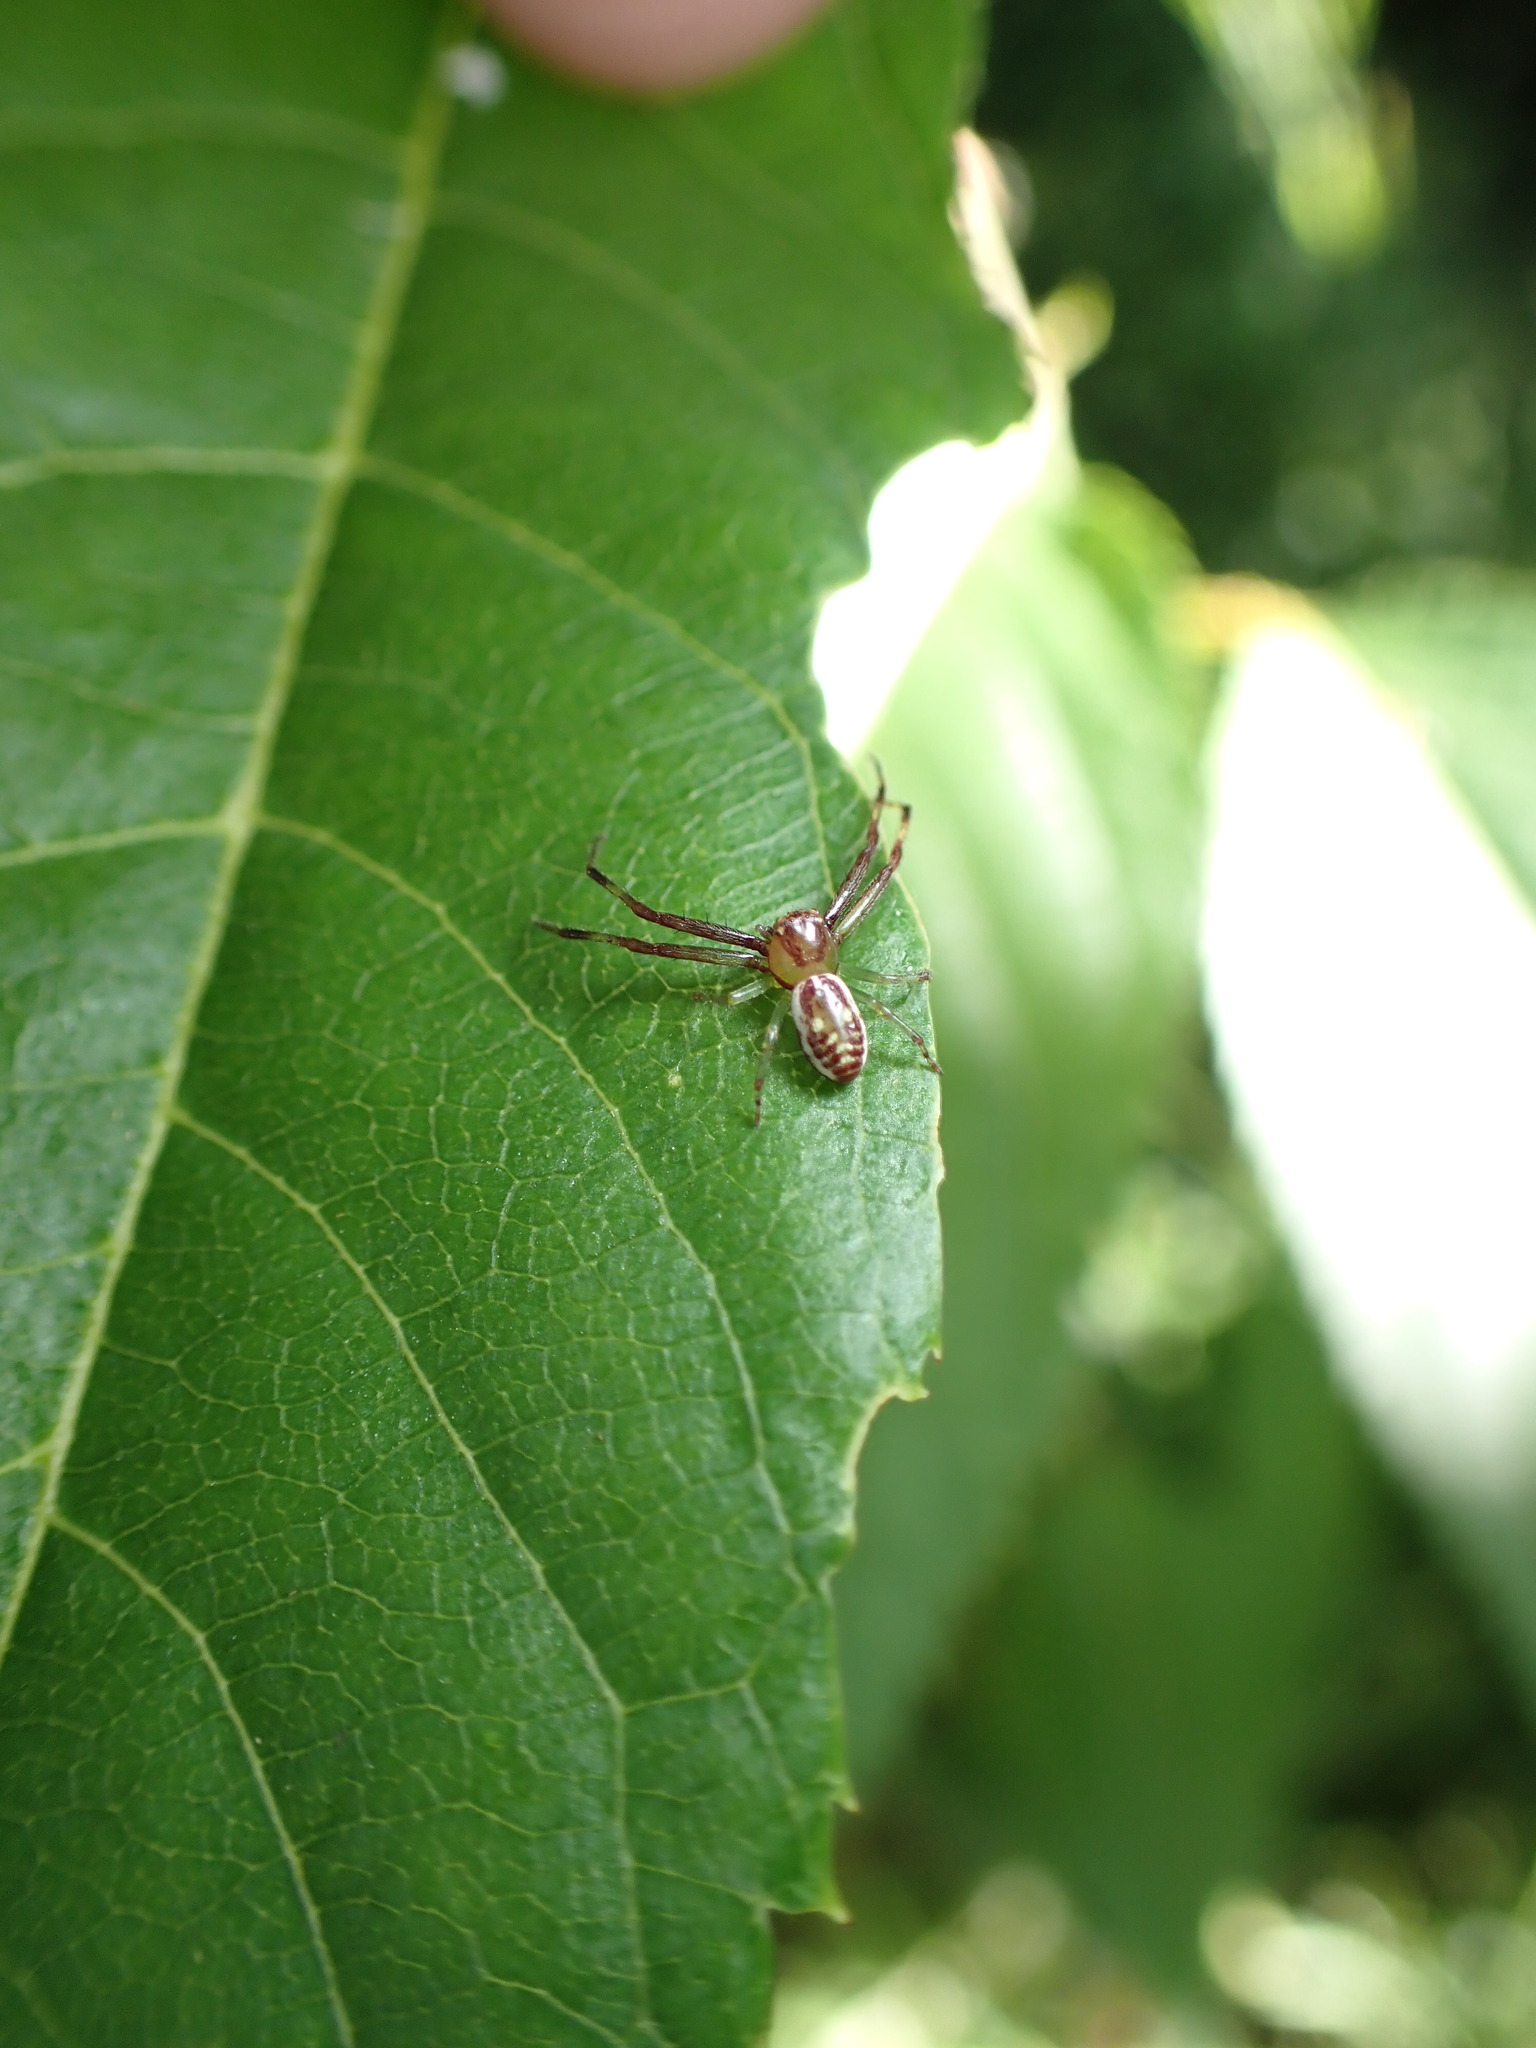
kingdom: Animalia
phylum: Arthropoda
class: Arachnida
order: Araneae
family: Thomisidae
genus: Diaea
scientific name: Diaea ambara
